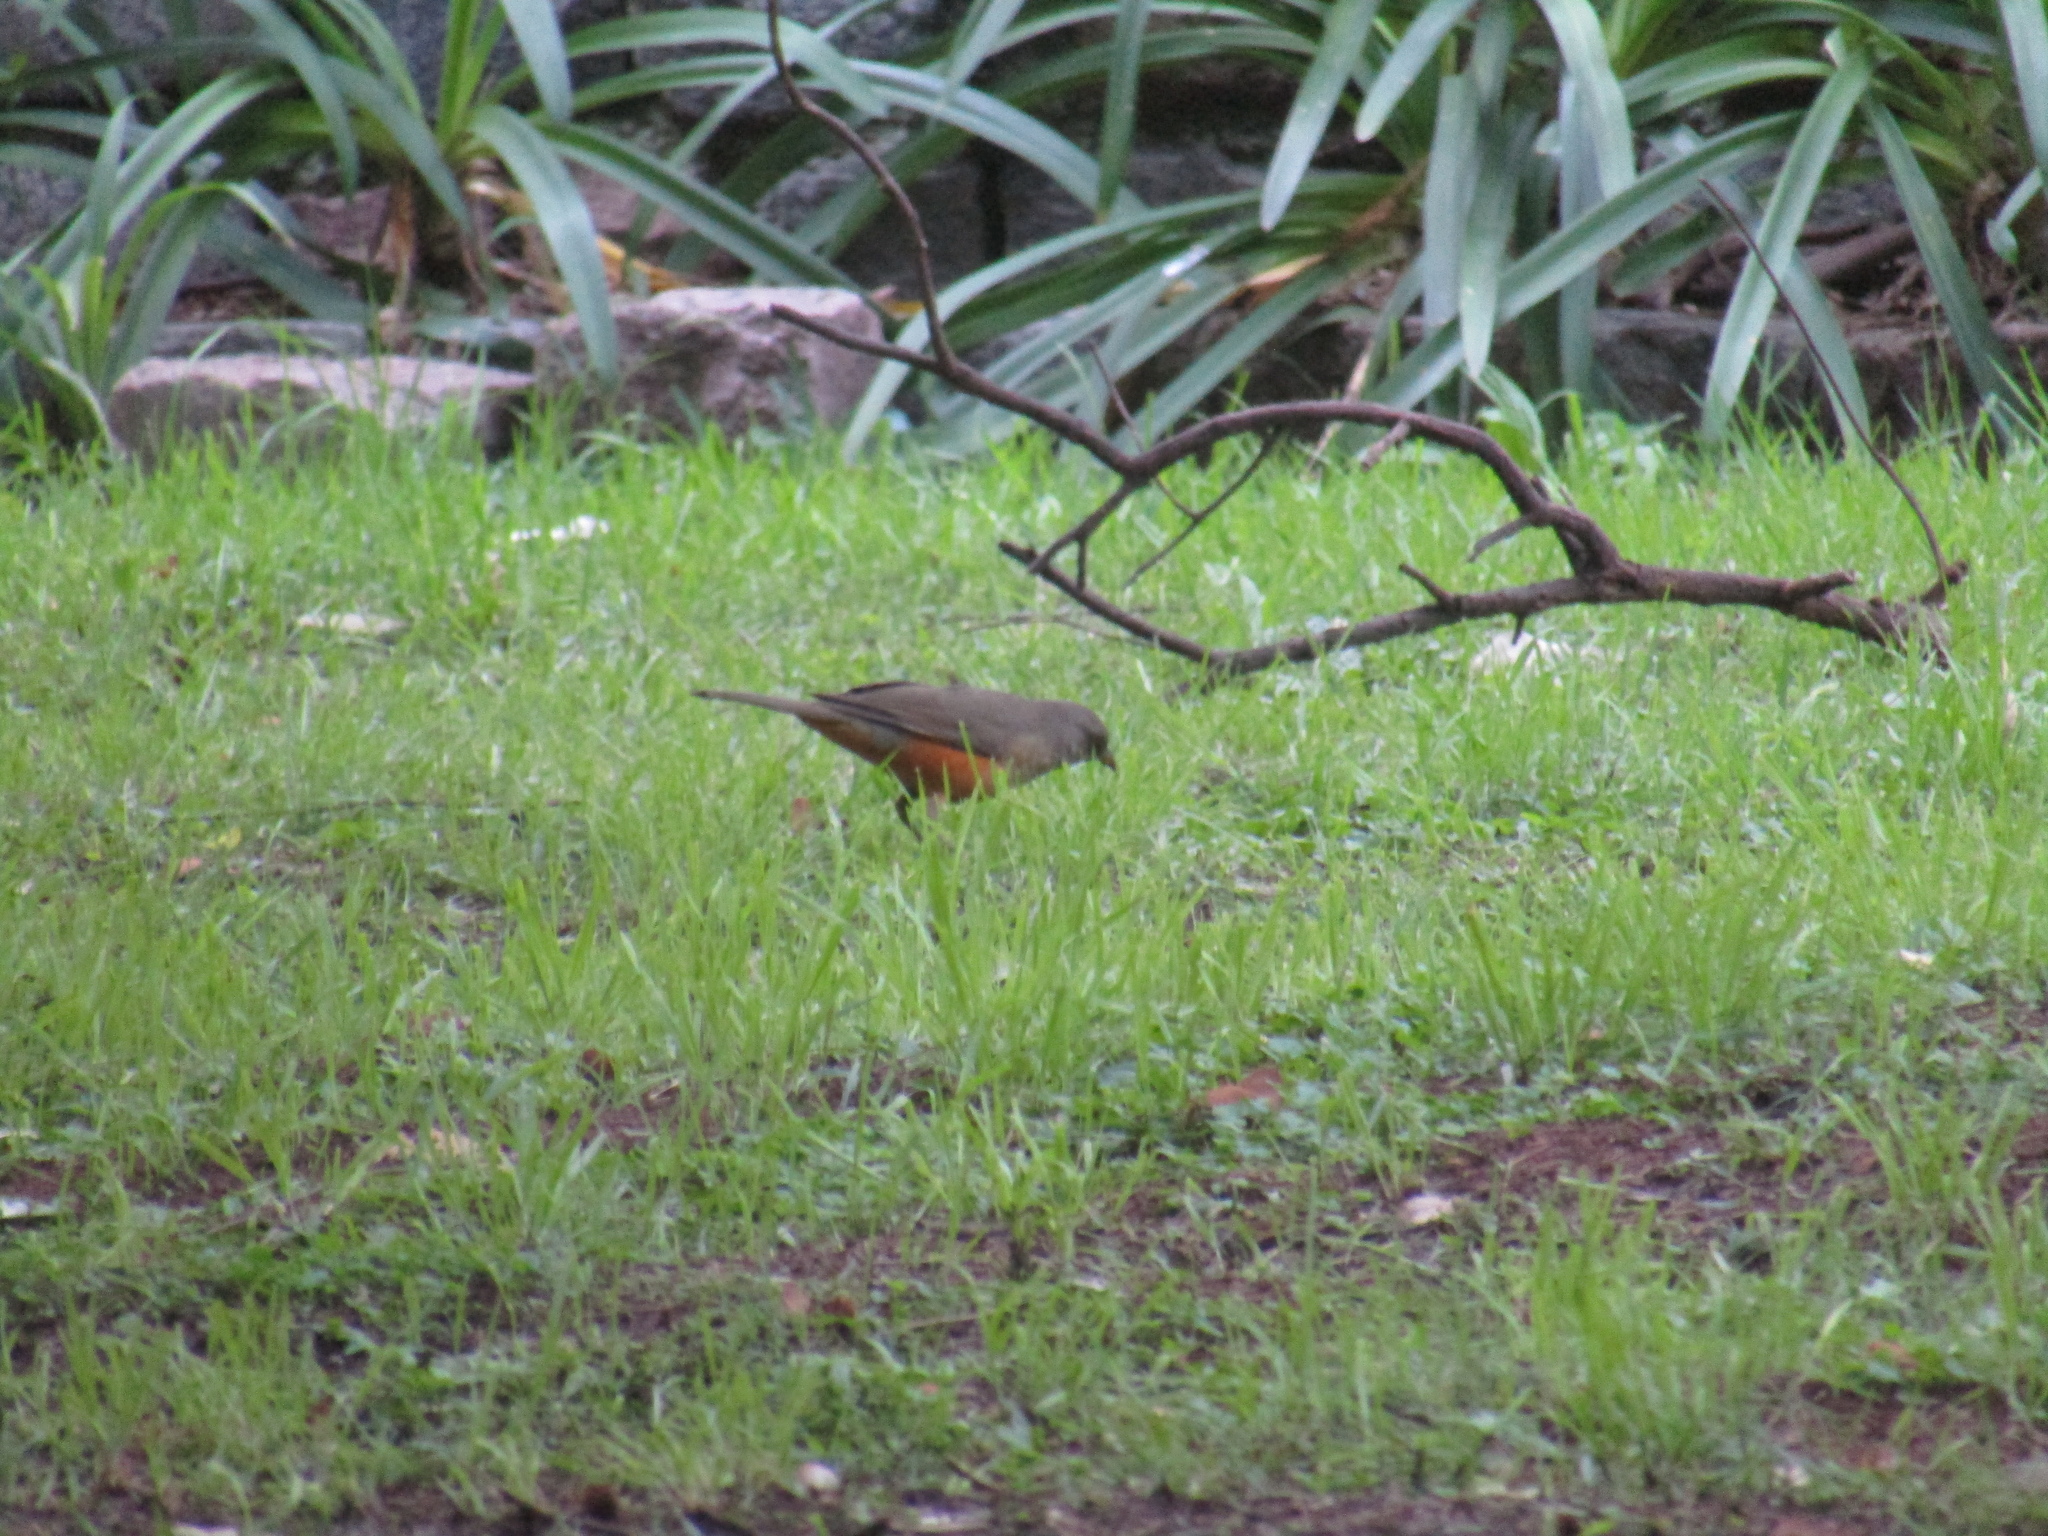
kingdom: Animalia
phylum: Chordata
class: Aves
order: Passeriformes
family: Turdidae
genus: Turdus
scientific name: Turdus rufiventris
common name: Rufous-bellied thrush
